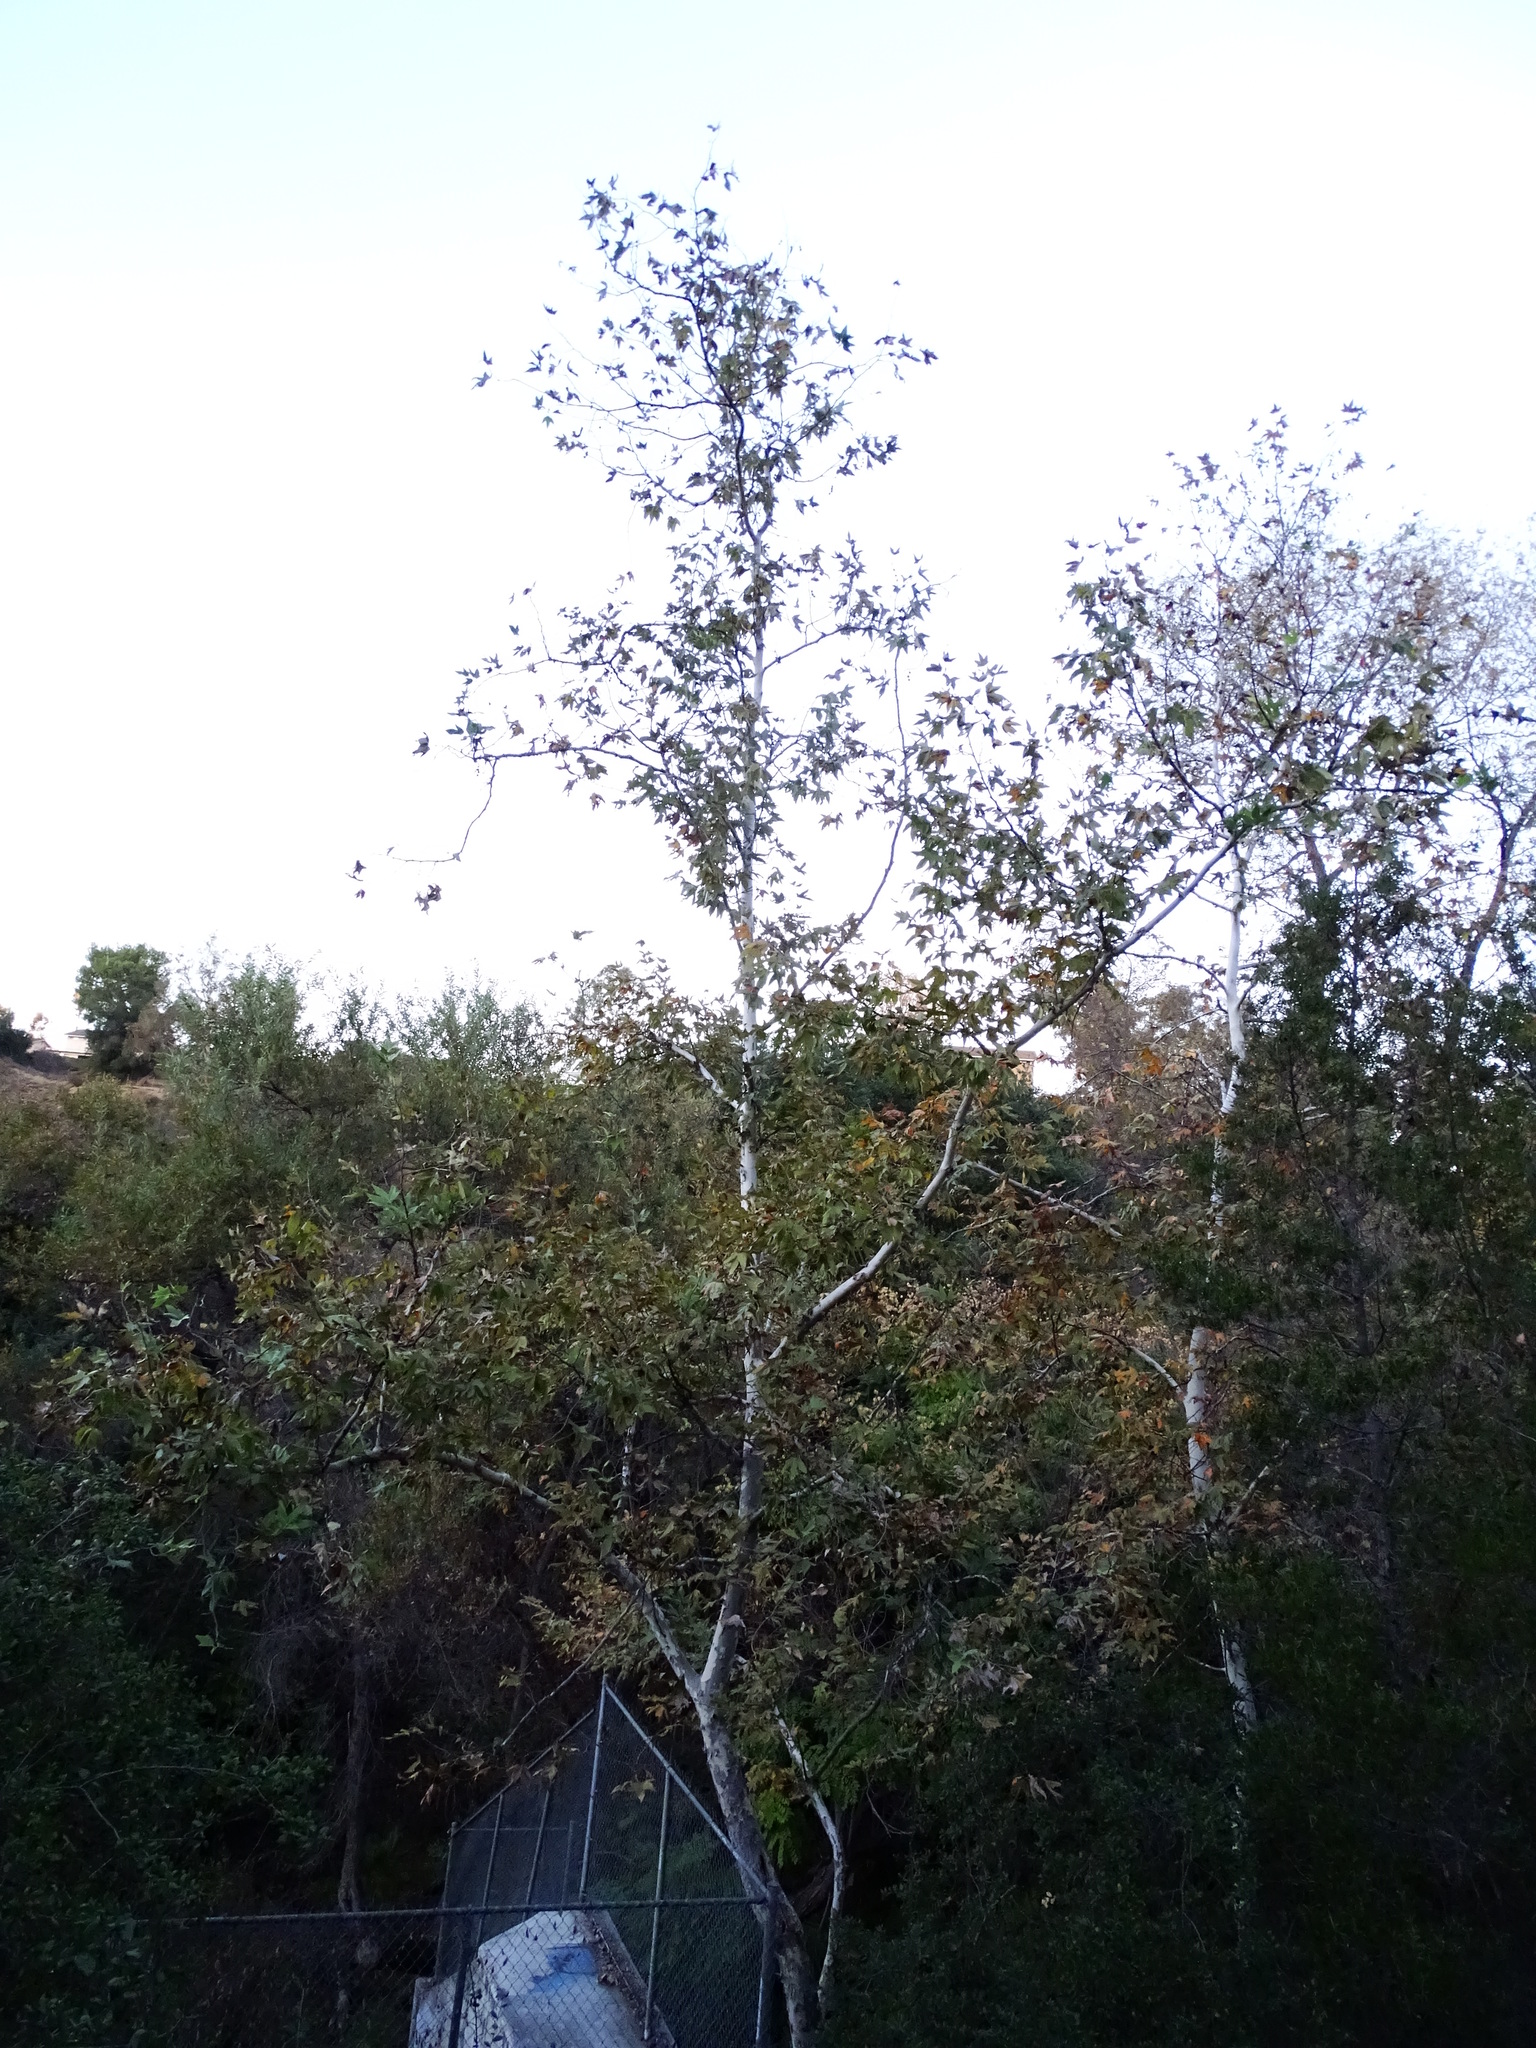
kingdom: Plantae
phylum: Tracheophyta
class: Magnoliopsida
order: Proteales
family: Platanaceae
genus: Platanus
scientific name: Platanus racemosa
